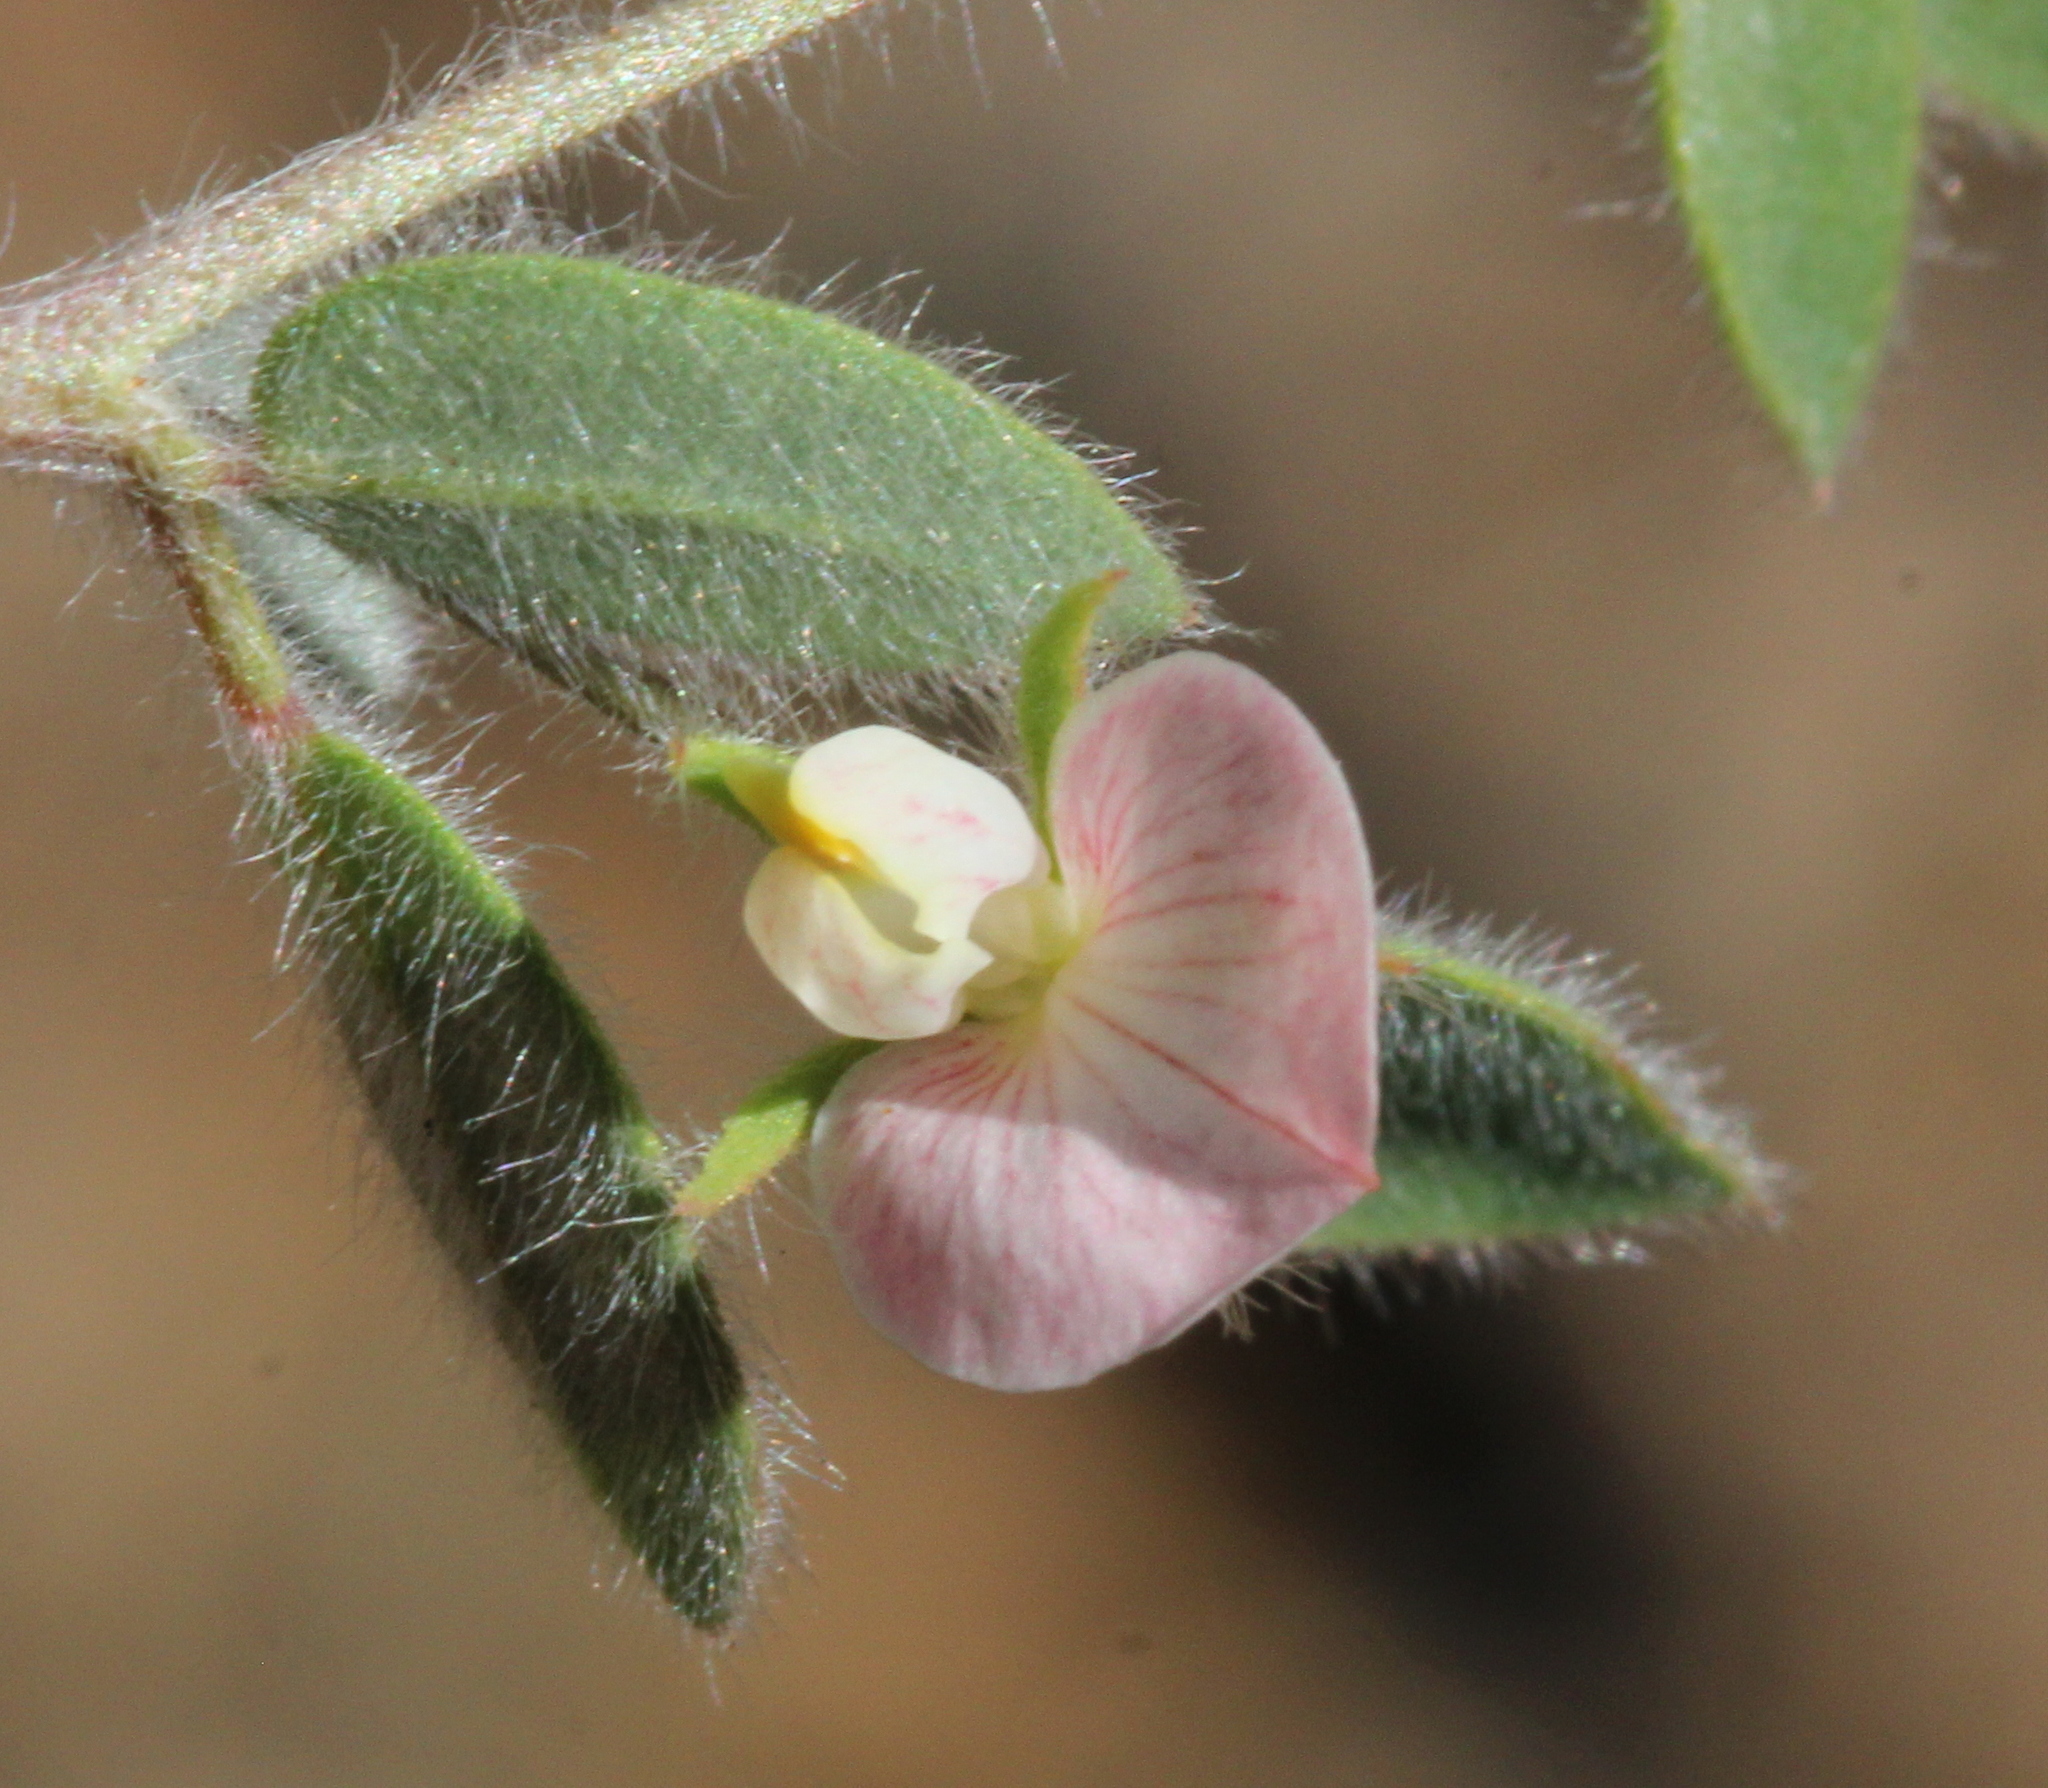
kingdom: Plantae
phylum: Tracheophyta
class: Magnoliopsida
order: Fabales
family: Fabaceae
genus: Acmispon
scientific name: Acmispon americanus
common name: American bird's-foot trefoil
